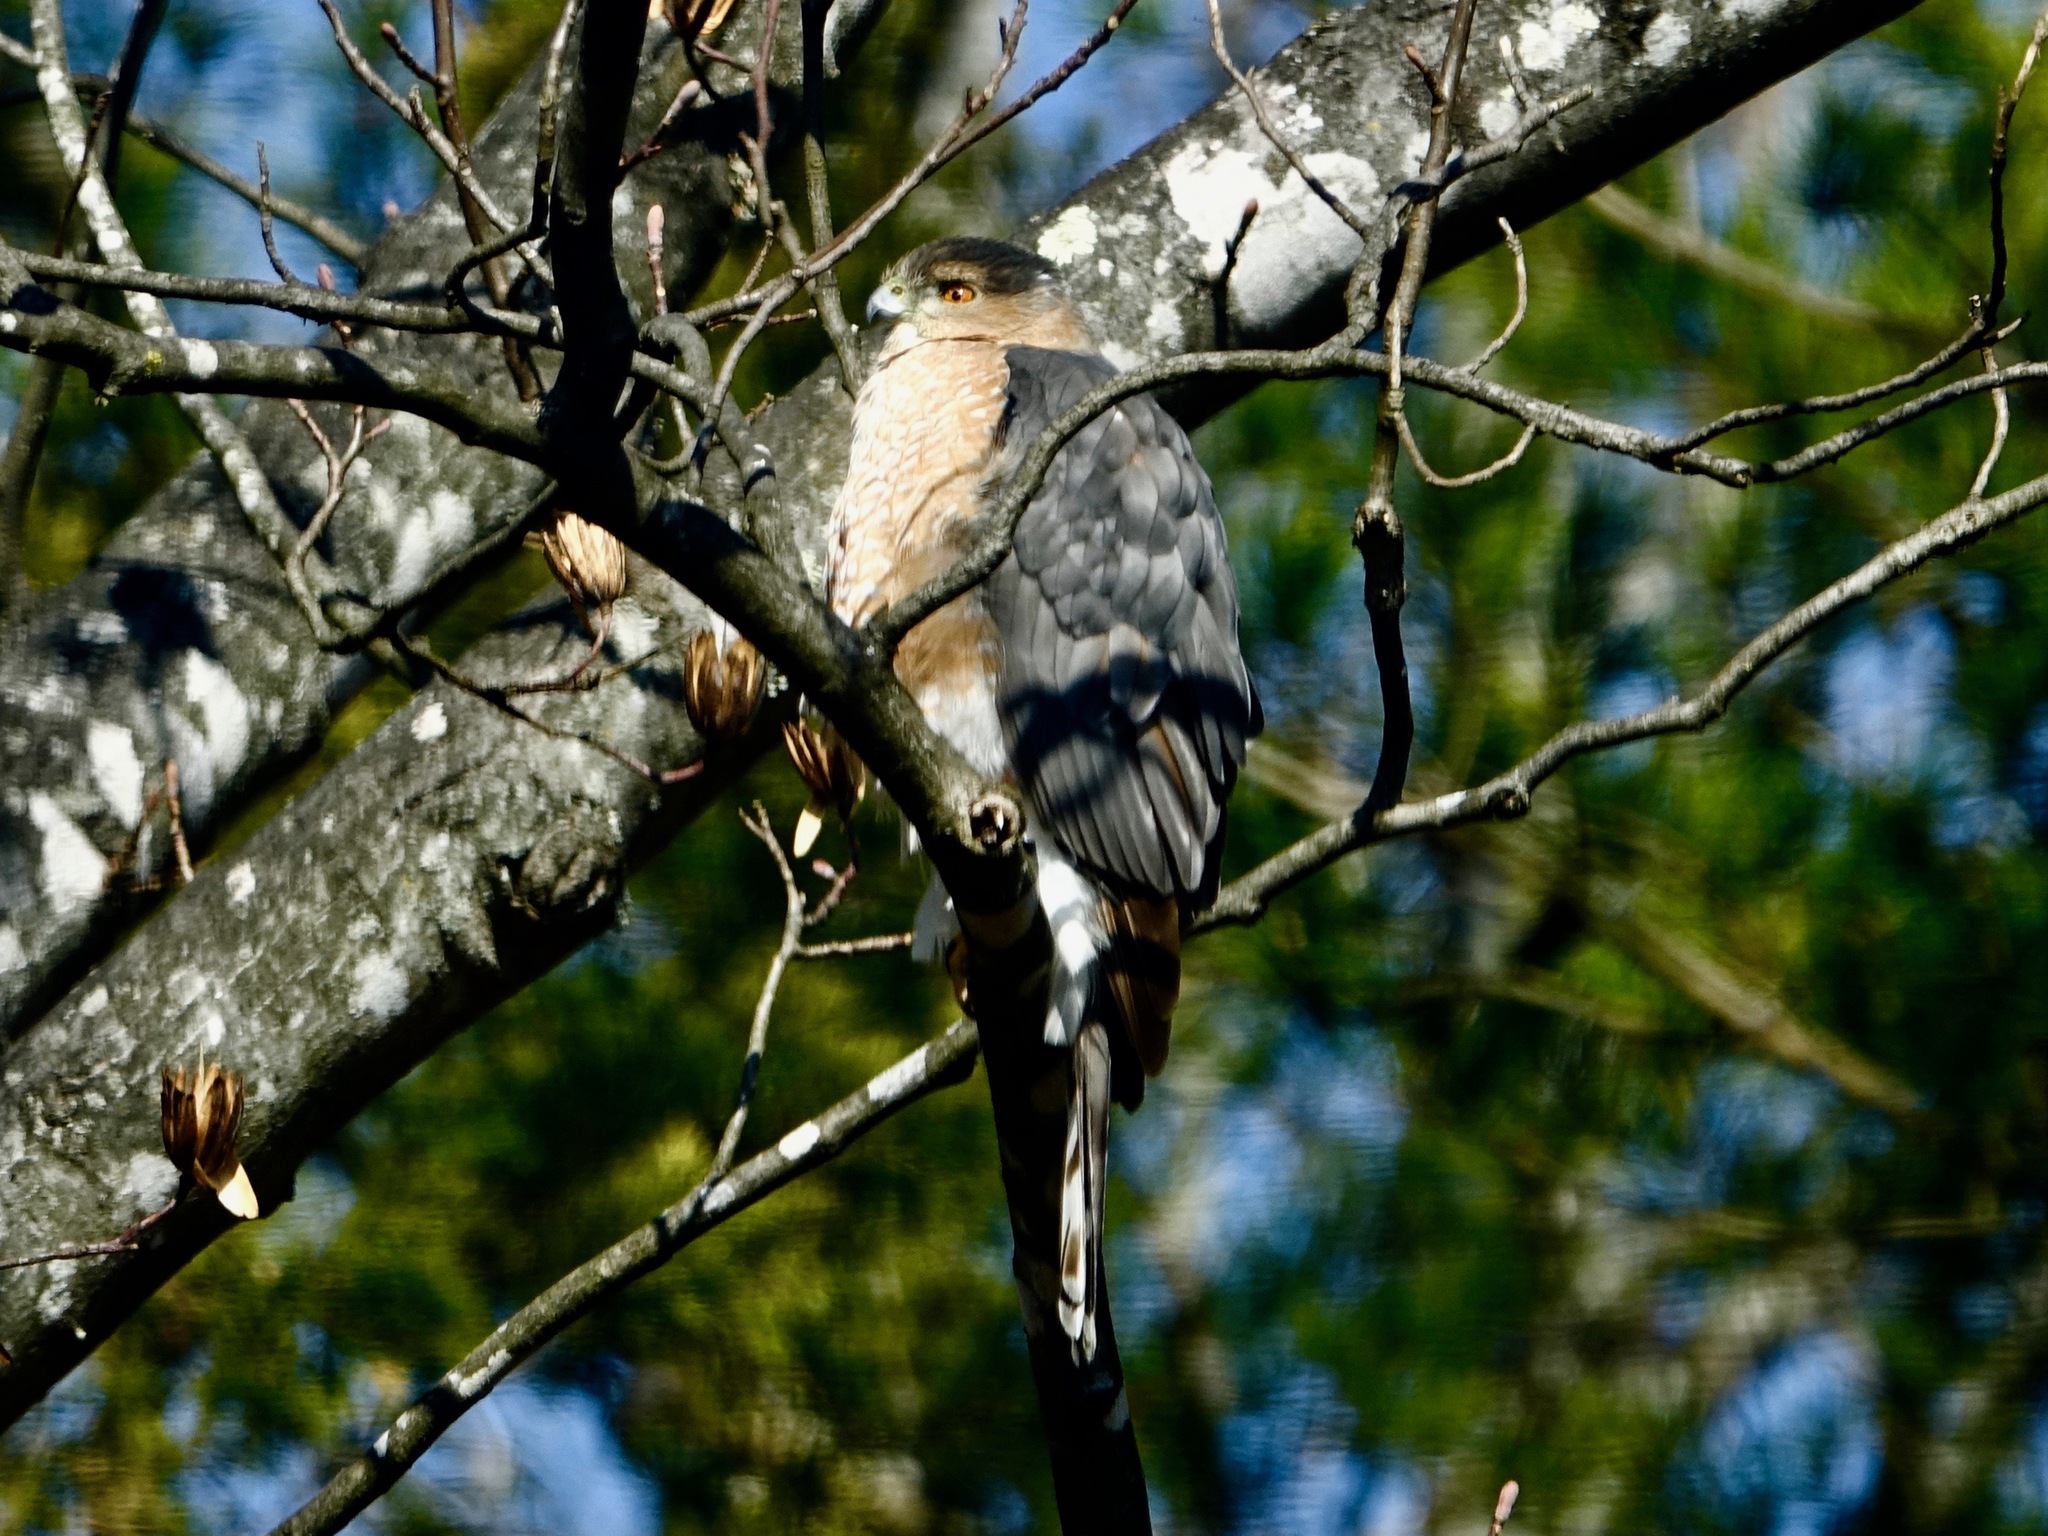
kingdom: Animalia
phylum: Chordata
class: Aves
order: Accipitriformes
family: Accipitridae
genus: Accipiter
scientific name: Accipiter cooperii
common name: Cooper's hawk
